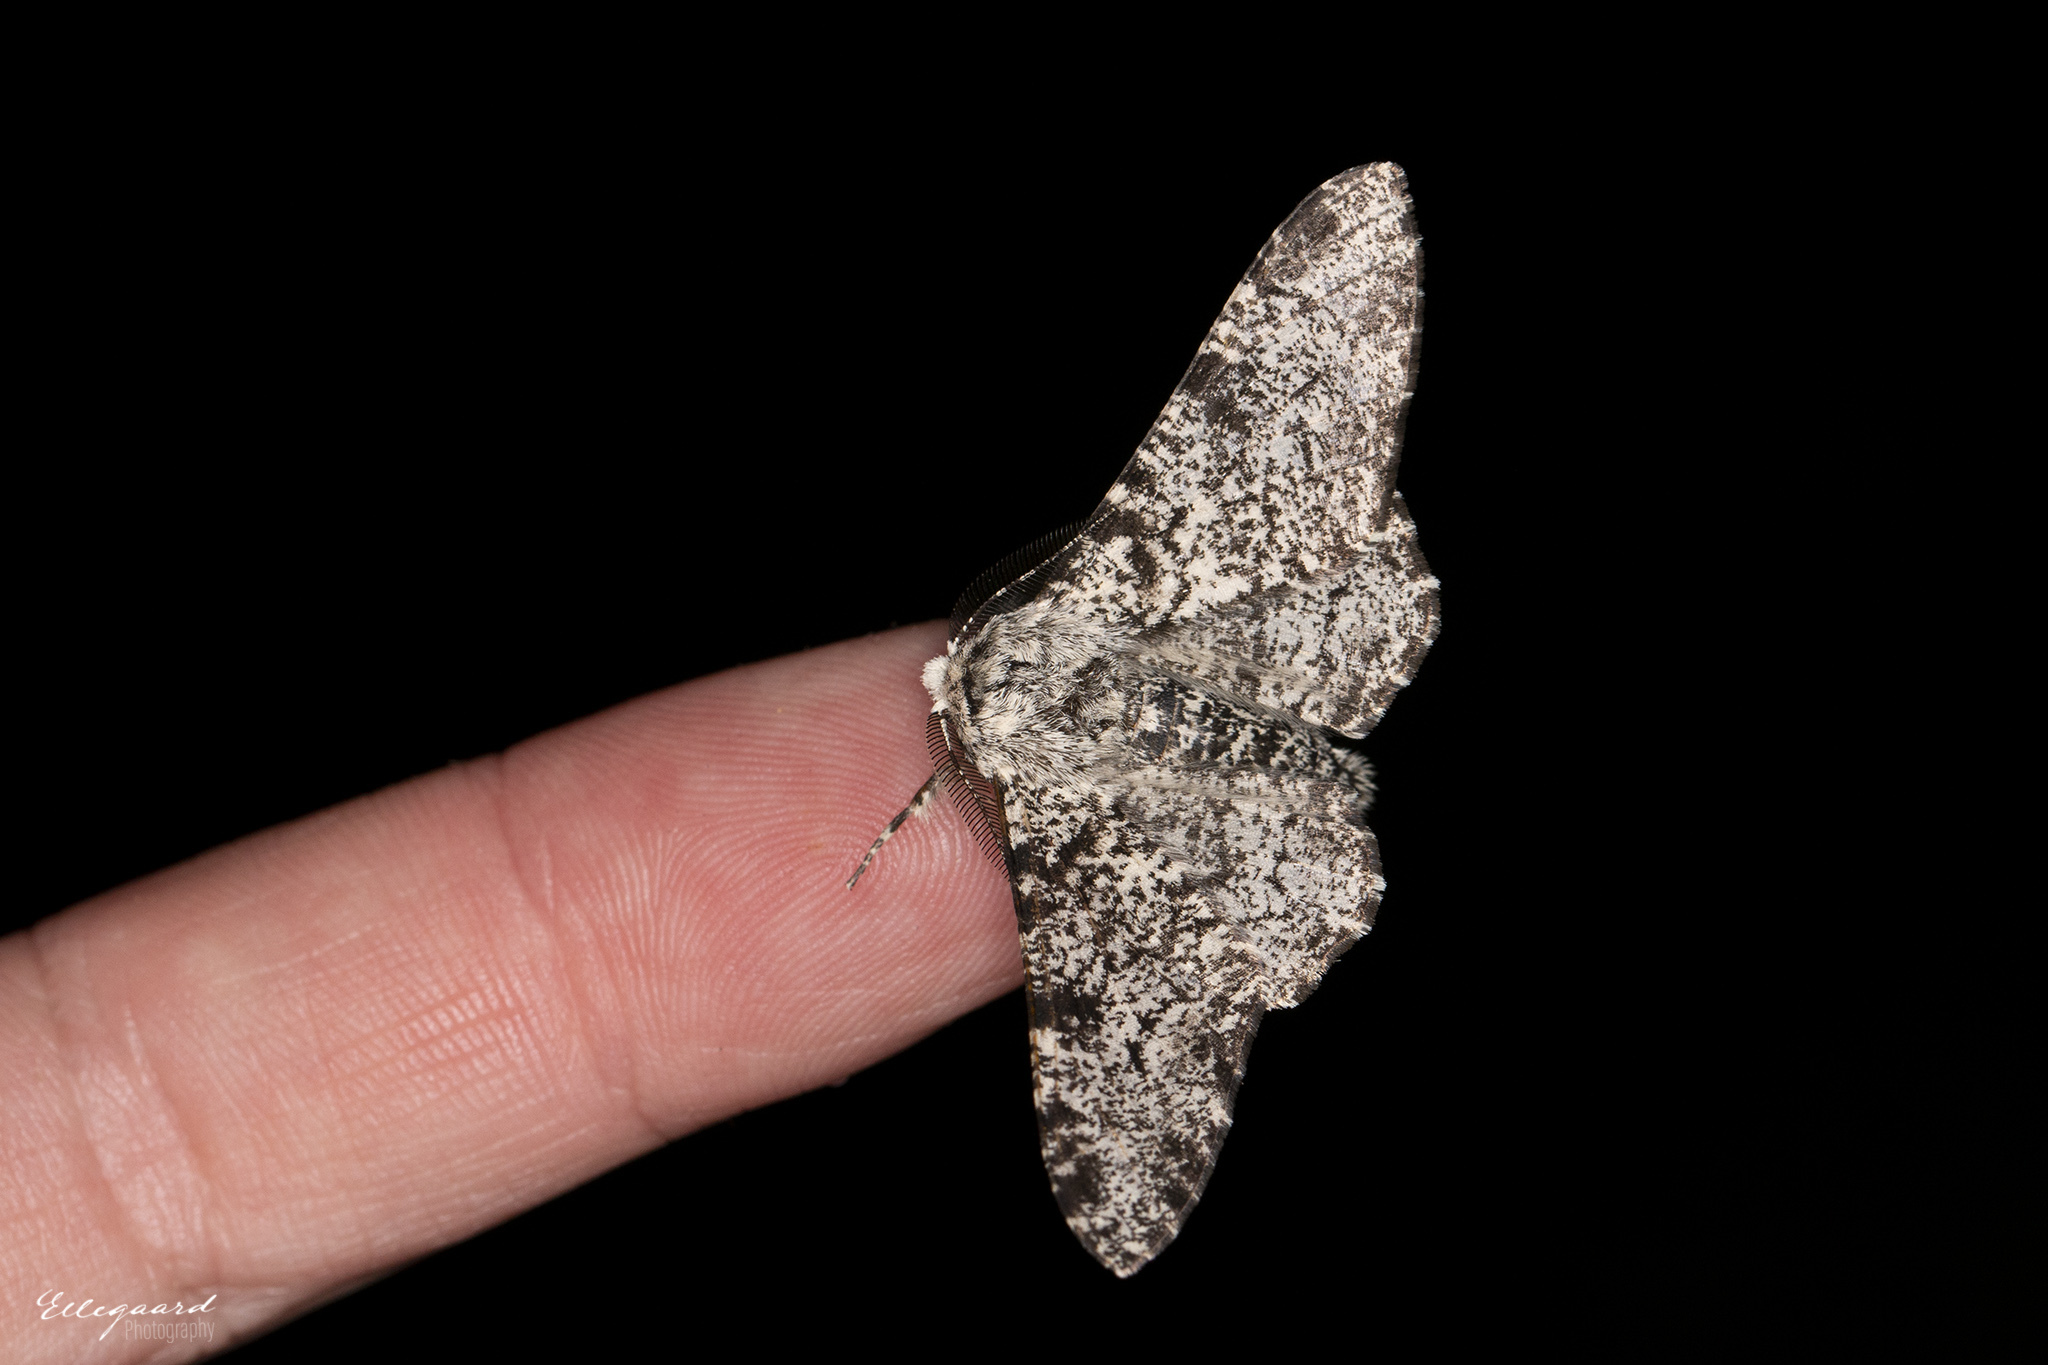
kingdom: Animalia
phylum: Arthropoda
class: Insecta
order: Lepidoptera
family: Geometridae
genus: Biston
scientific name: Biston betularia
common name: Peppered moth
